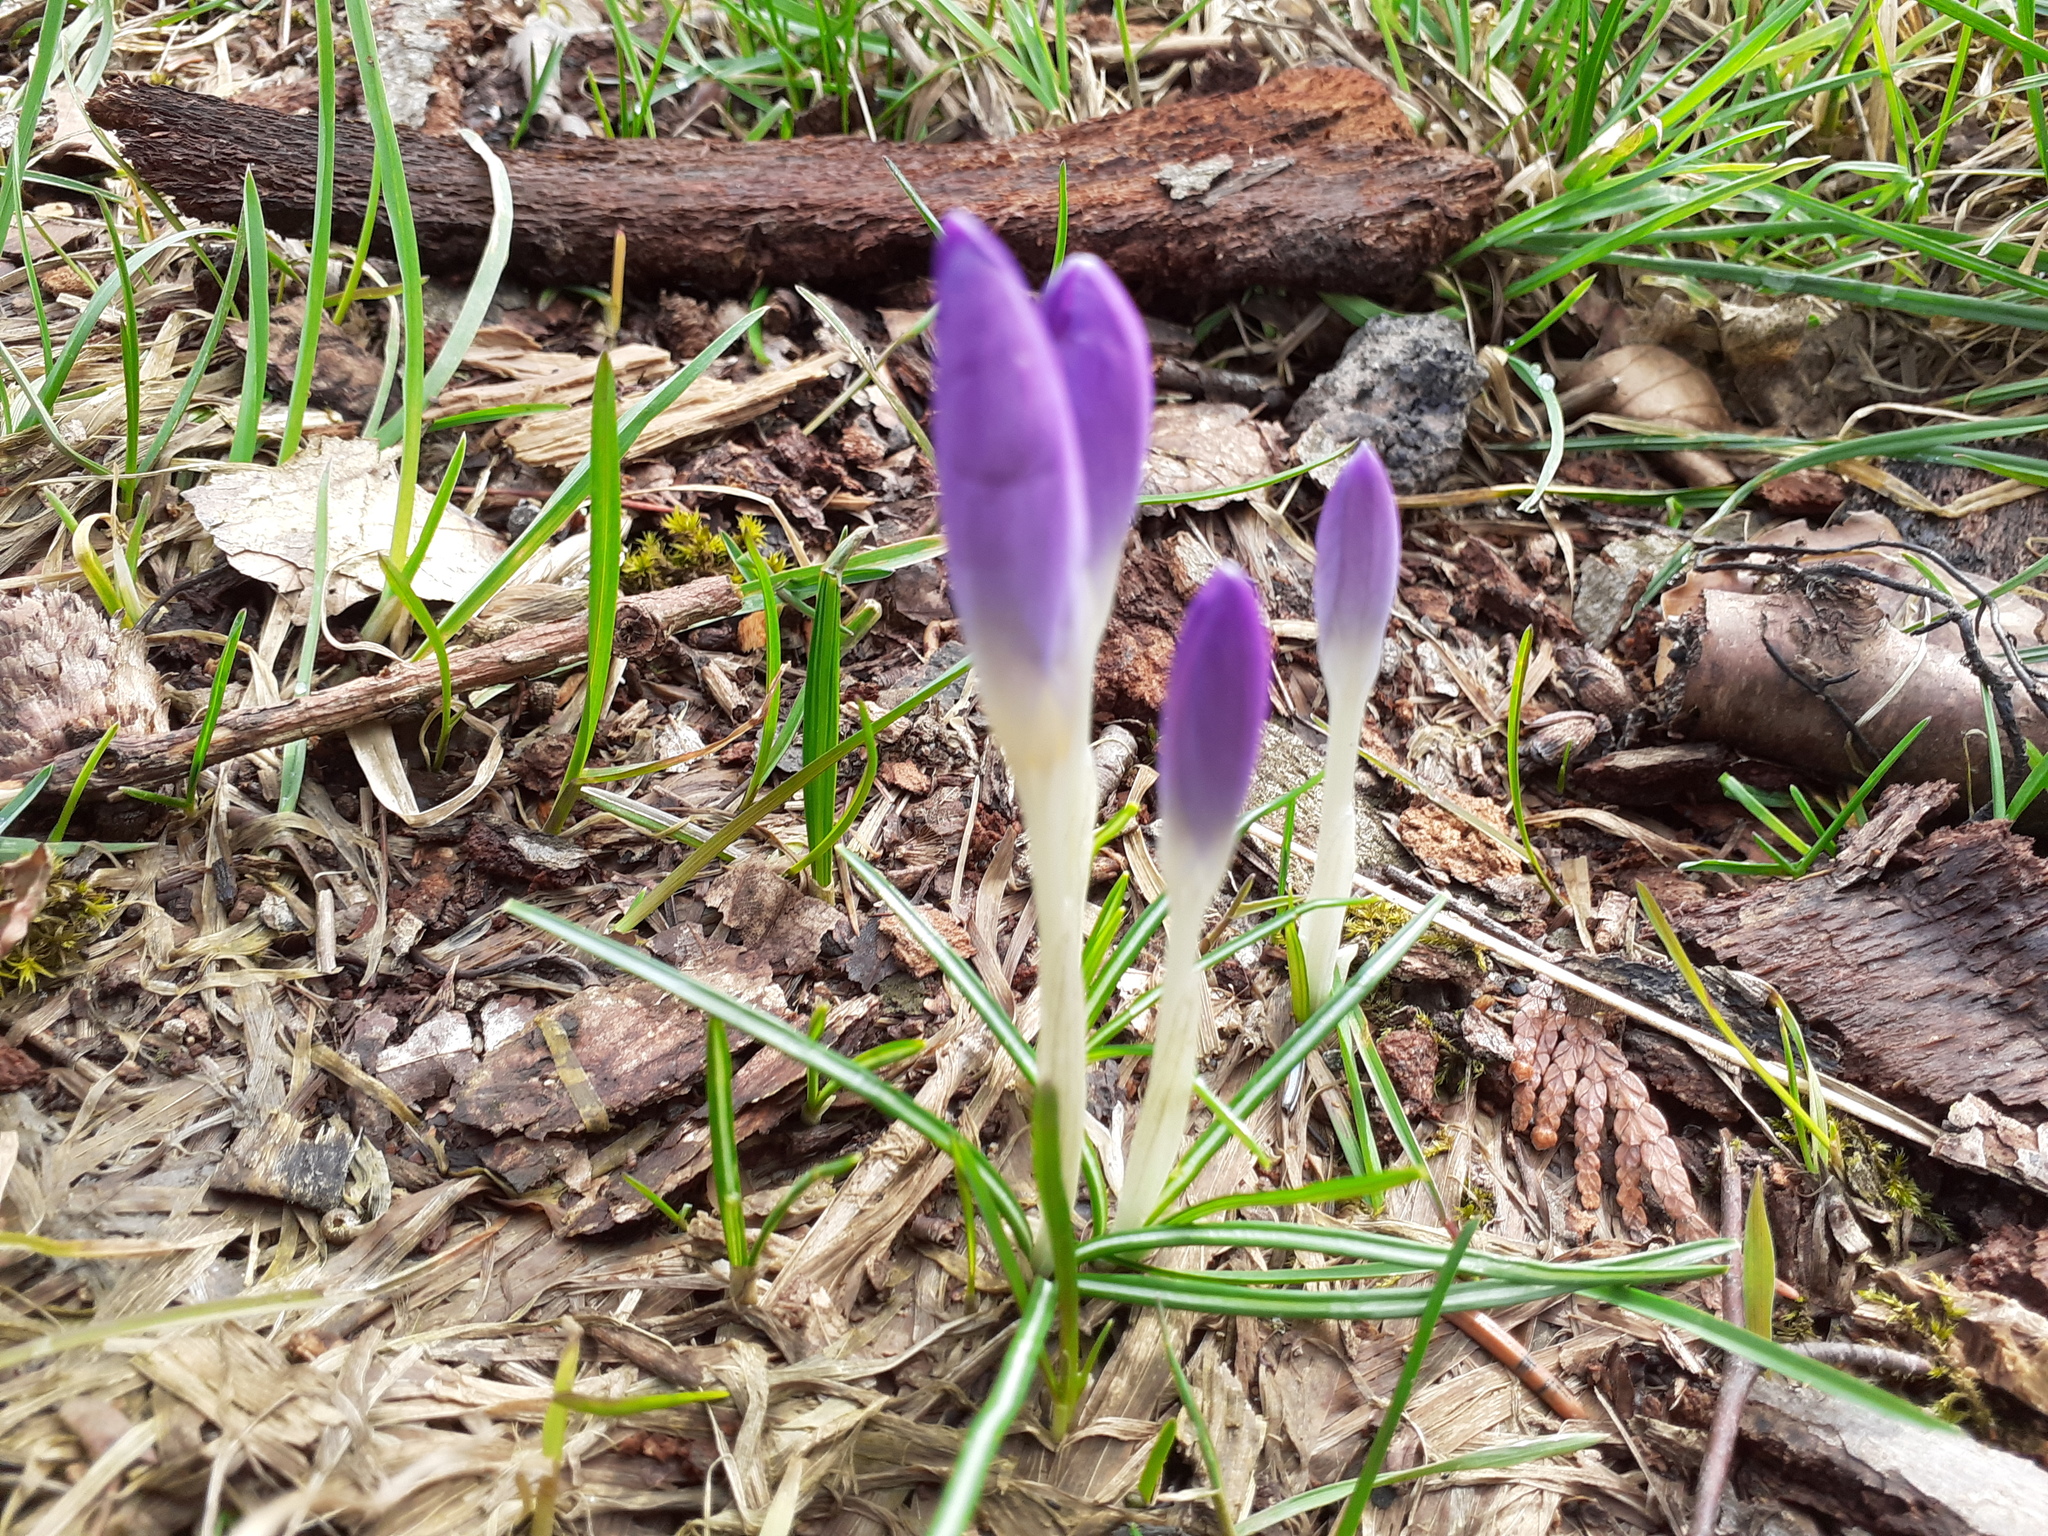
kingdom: Plantae
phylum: Tracheophyta
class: Liliopsida
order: Asparagales
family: Iridaceae
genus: Crocus
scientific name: Crocus tommasinianus
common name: Early crocus
